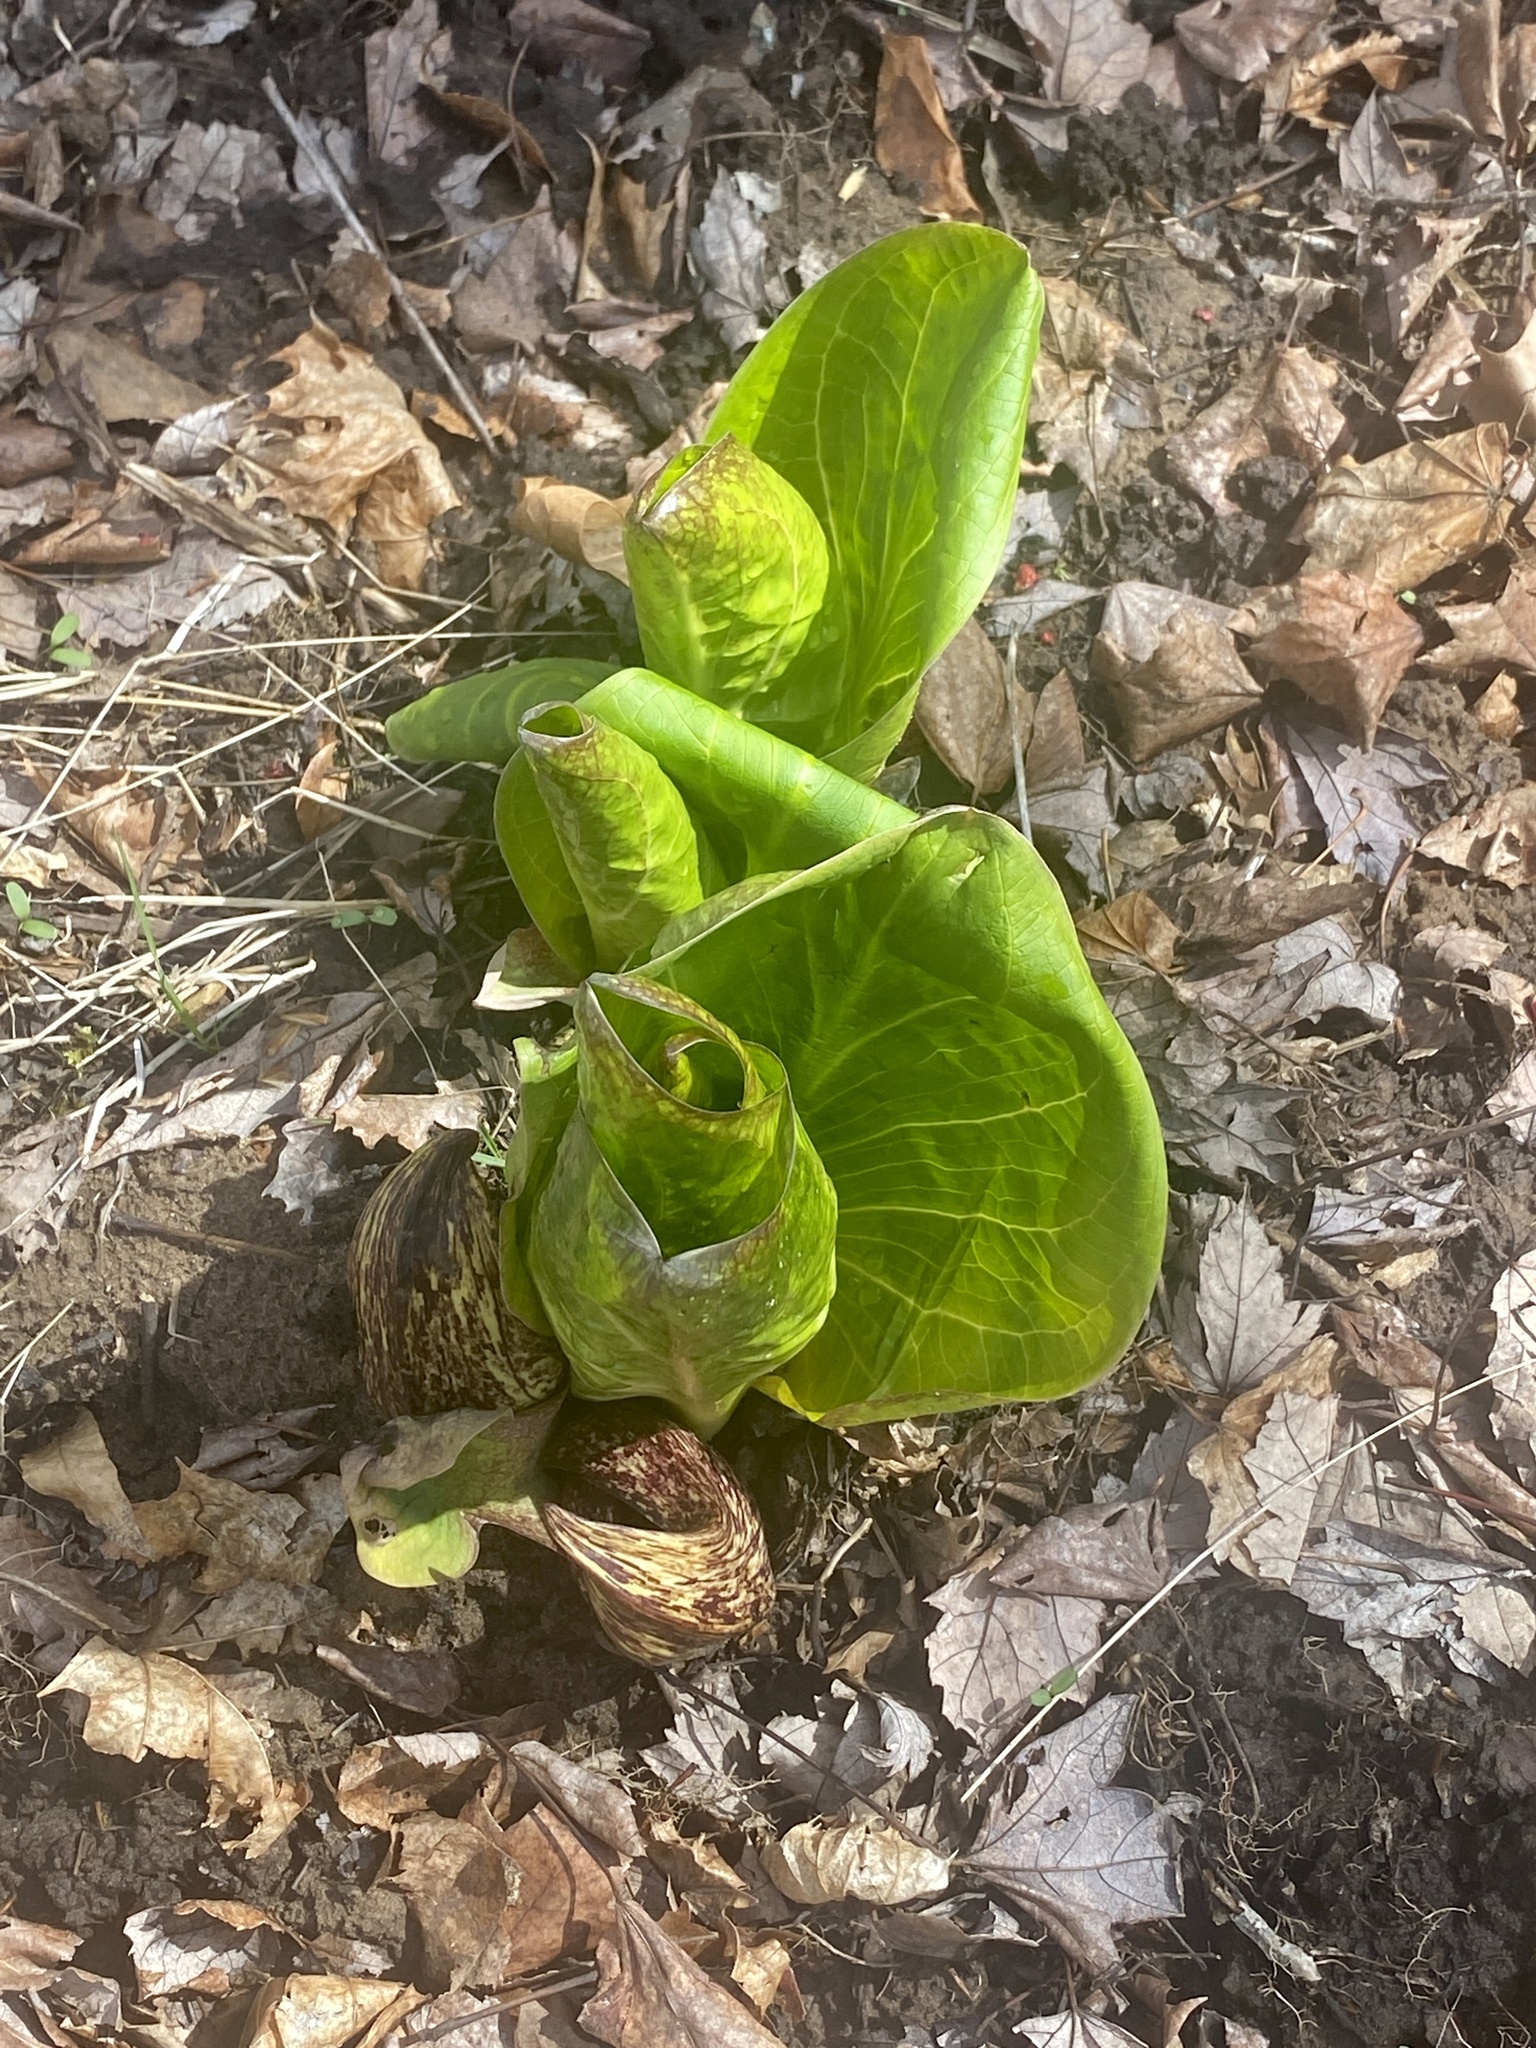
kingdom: Plantae
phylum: Tracheophyta
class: Liliopsida
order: Alismatales
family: Araceae
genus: Symplocarpus
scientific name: Symplocarpus foetidus
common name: Eastern skunk cabbage
